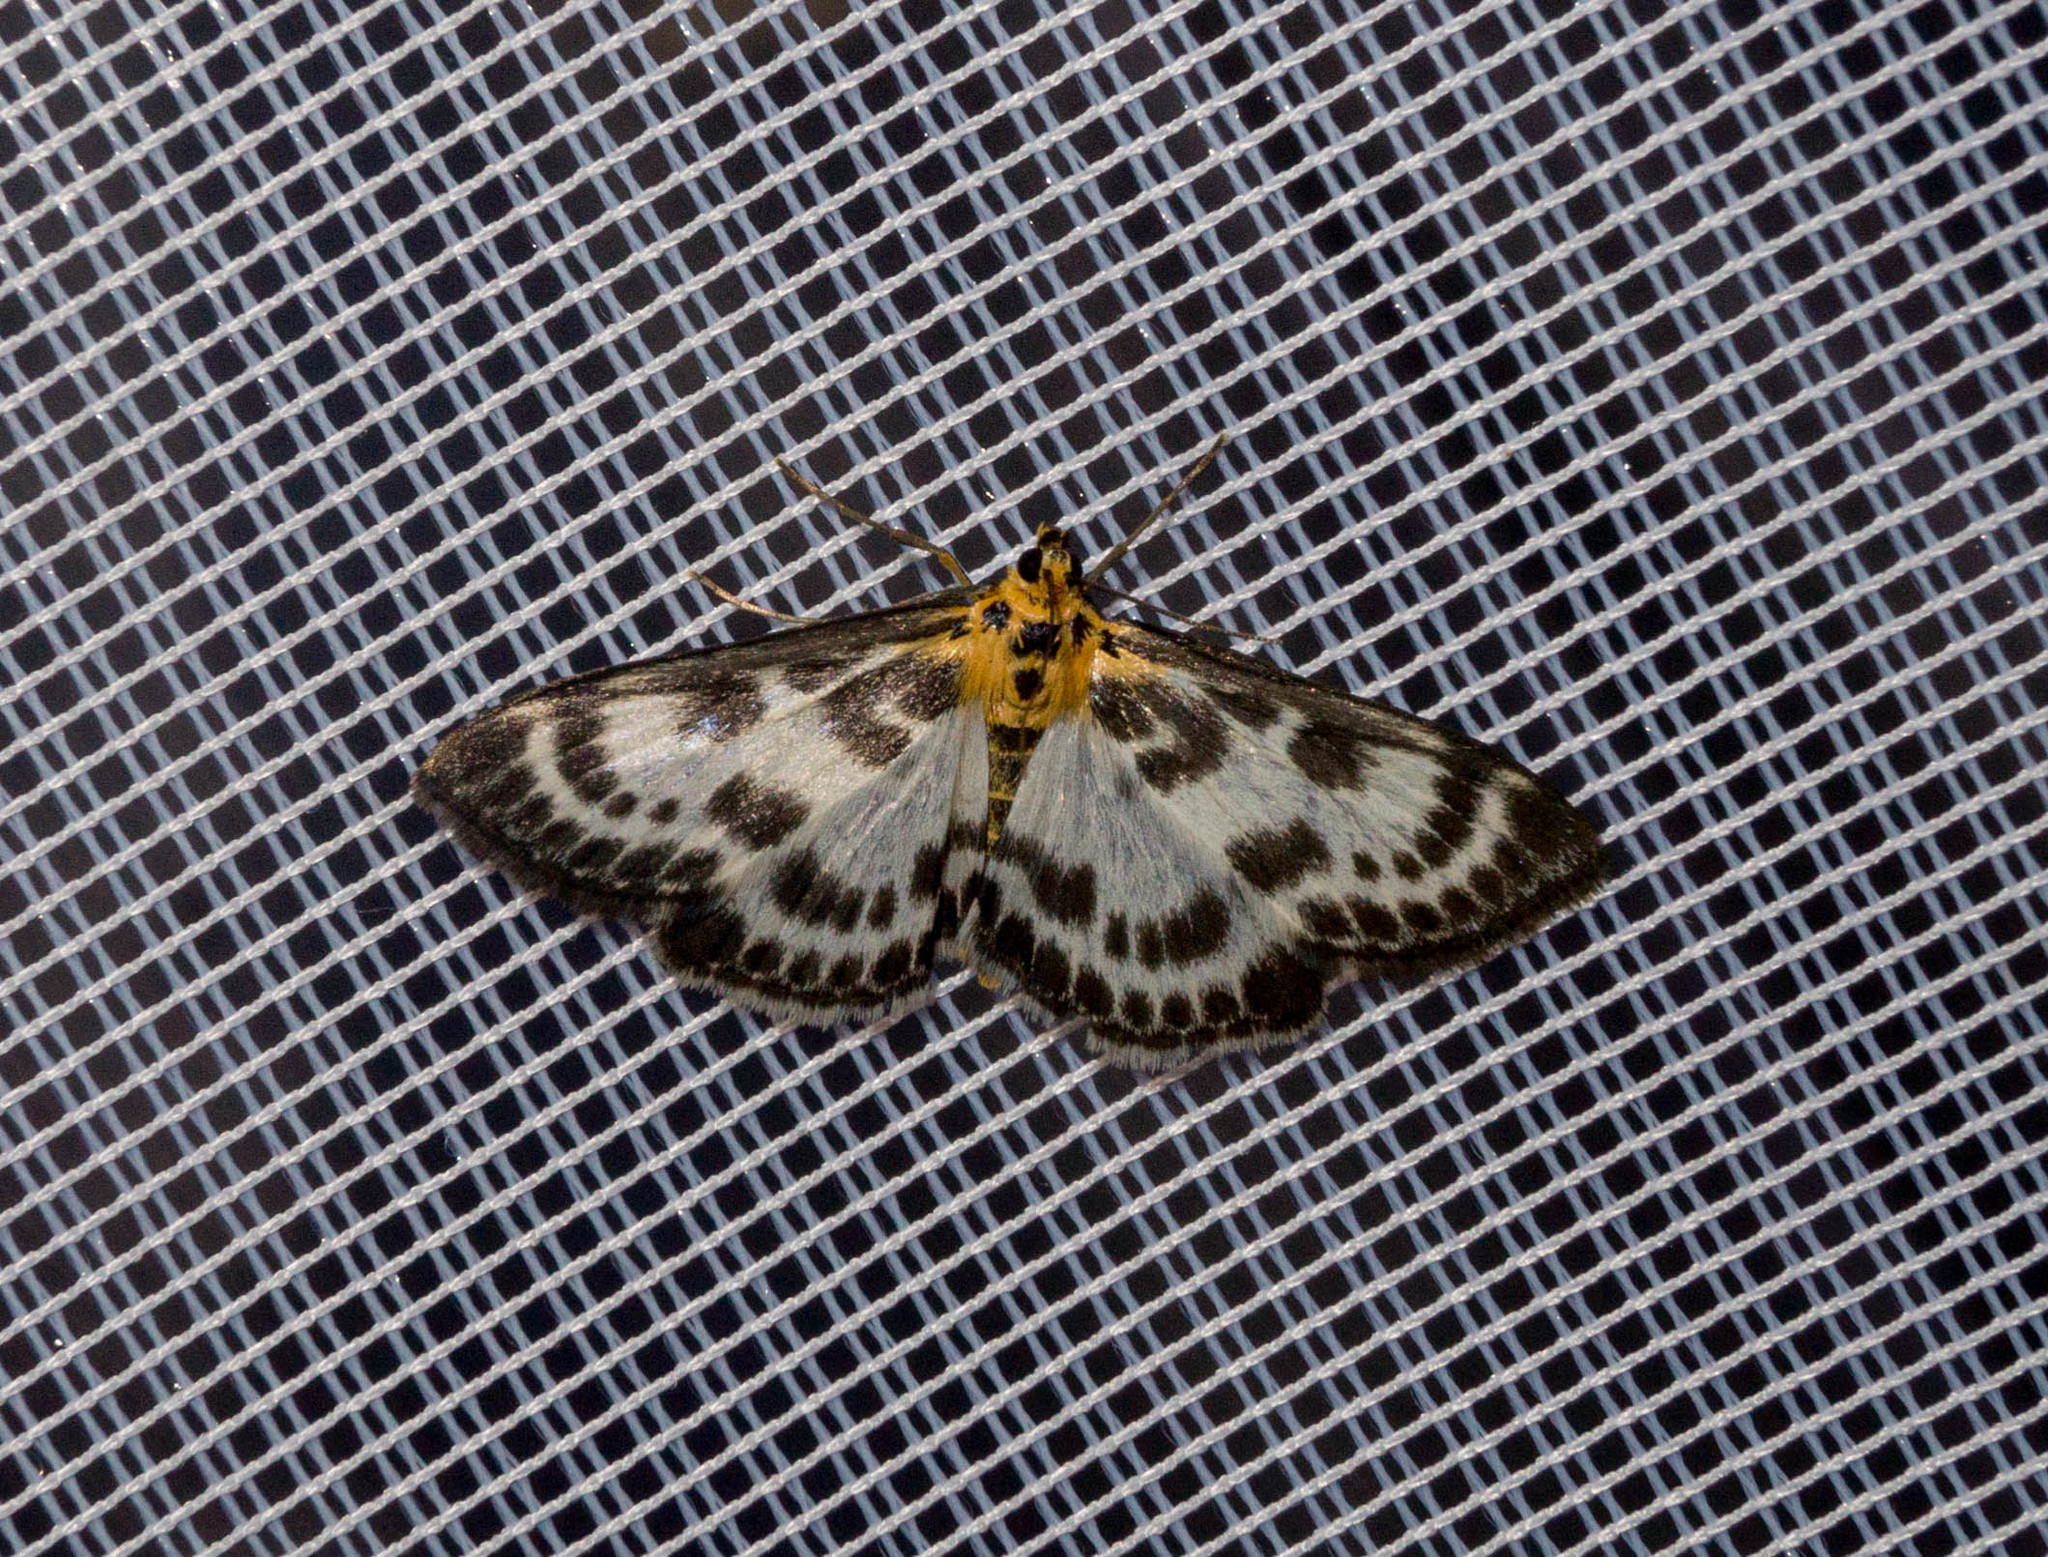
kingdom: Animalia
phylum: Arthropoda
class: Insecta
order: Lepidoptera
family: Crambidae
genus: Anania
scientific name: Anania hortulata
